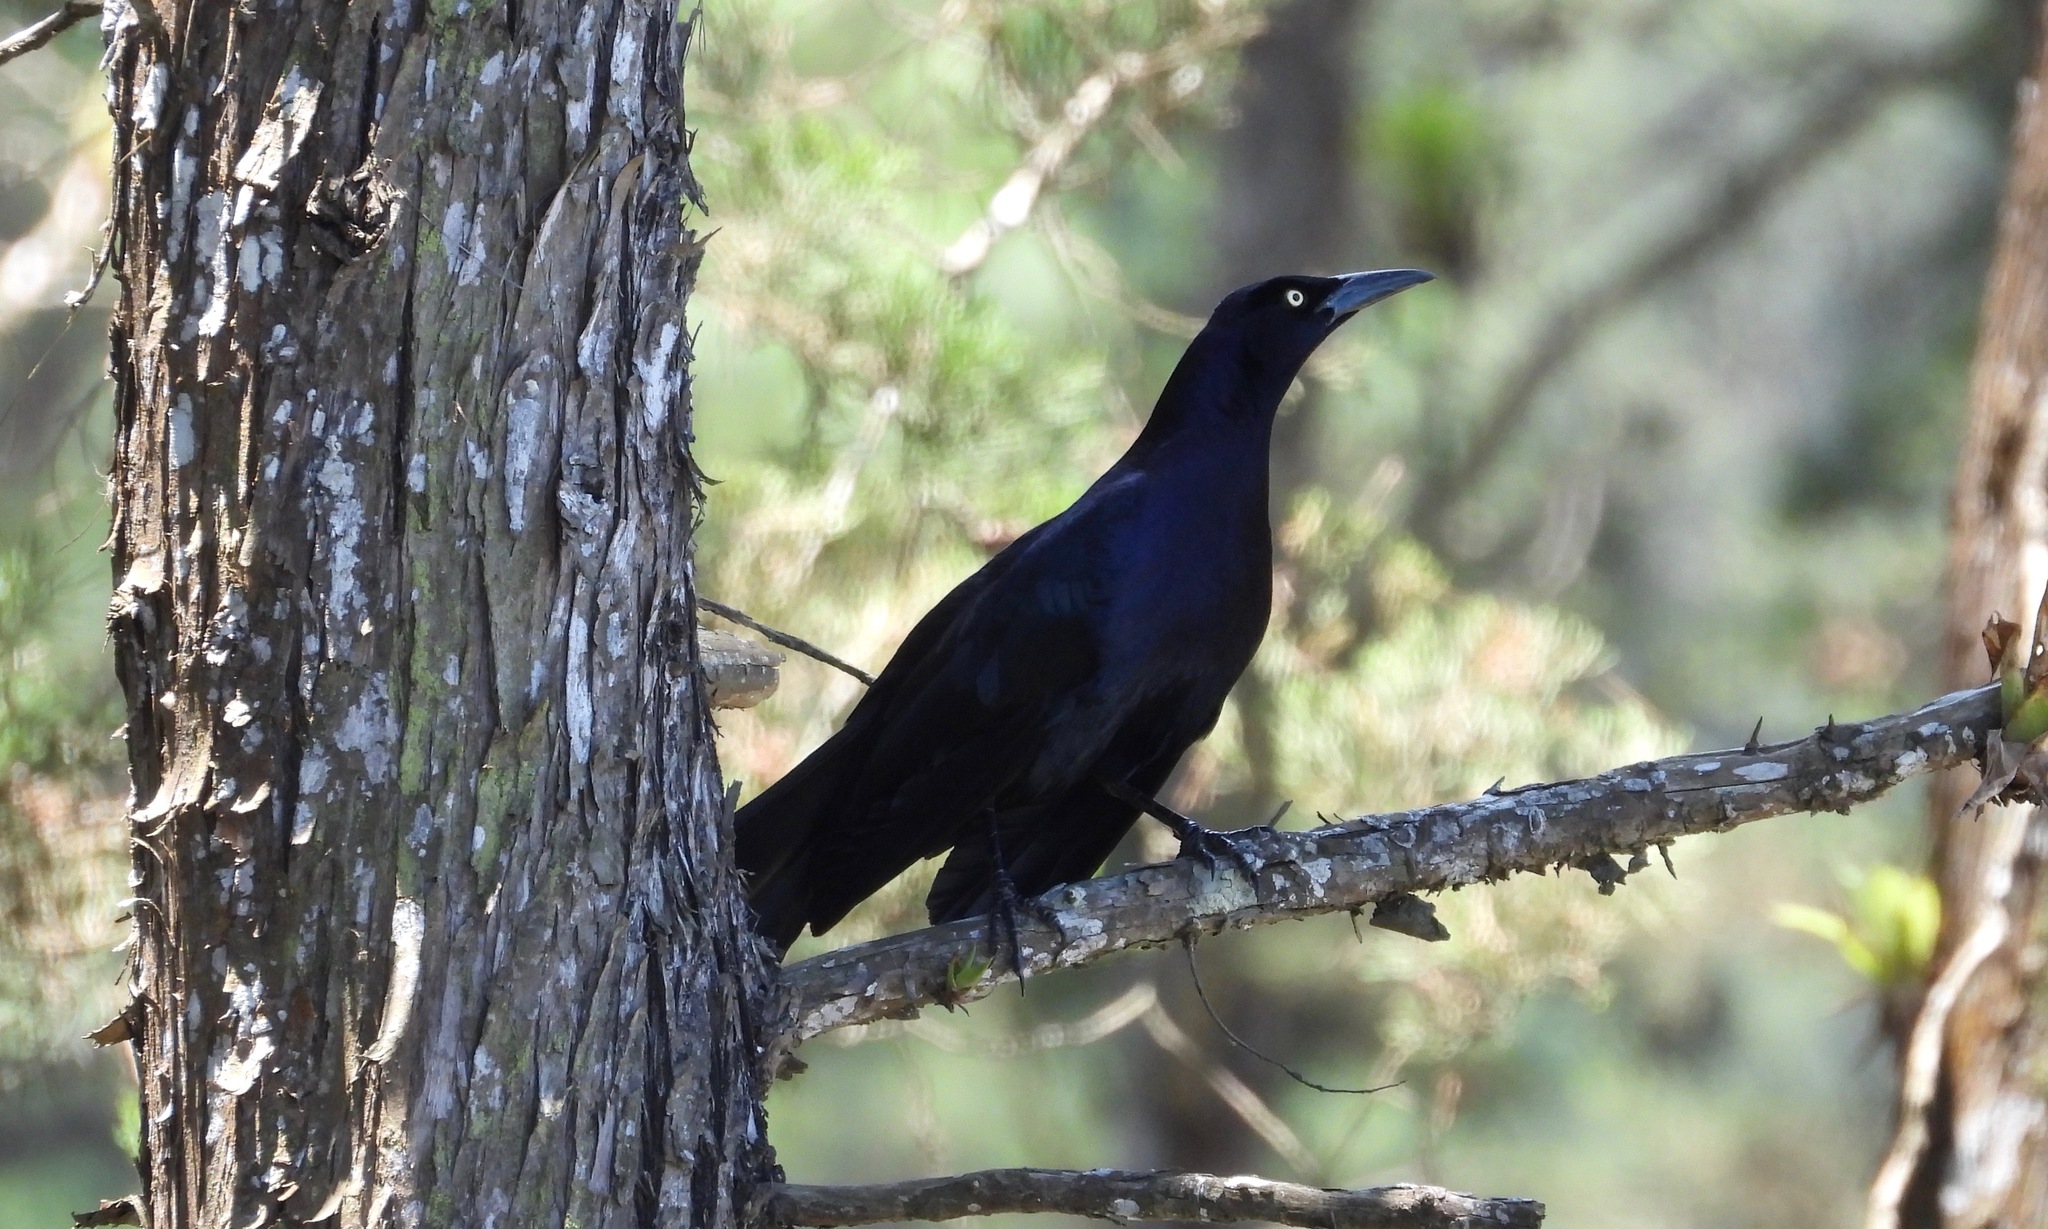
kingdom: Animalia
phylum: Chordata
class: Aves
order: Passeriformes
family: Icteridae
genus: Quiscalus
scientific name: Quiscalus mexicanus
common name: Great-tailed grackle
